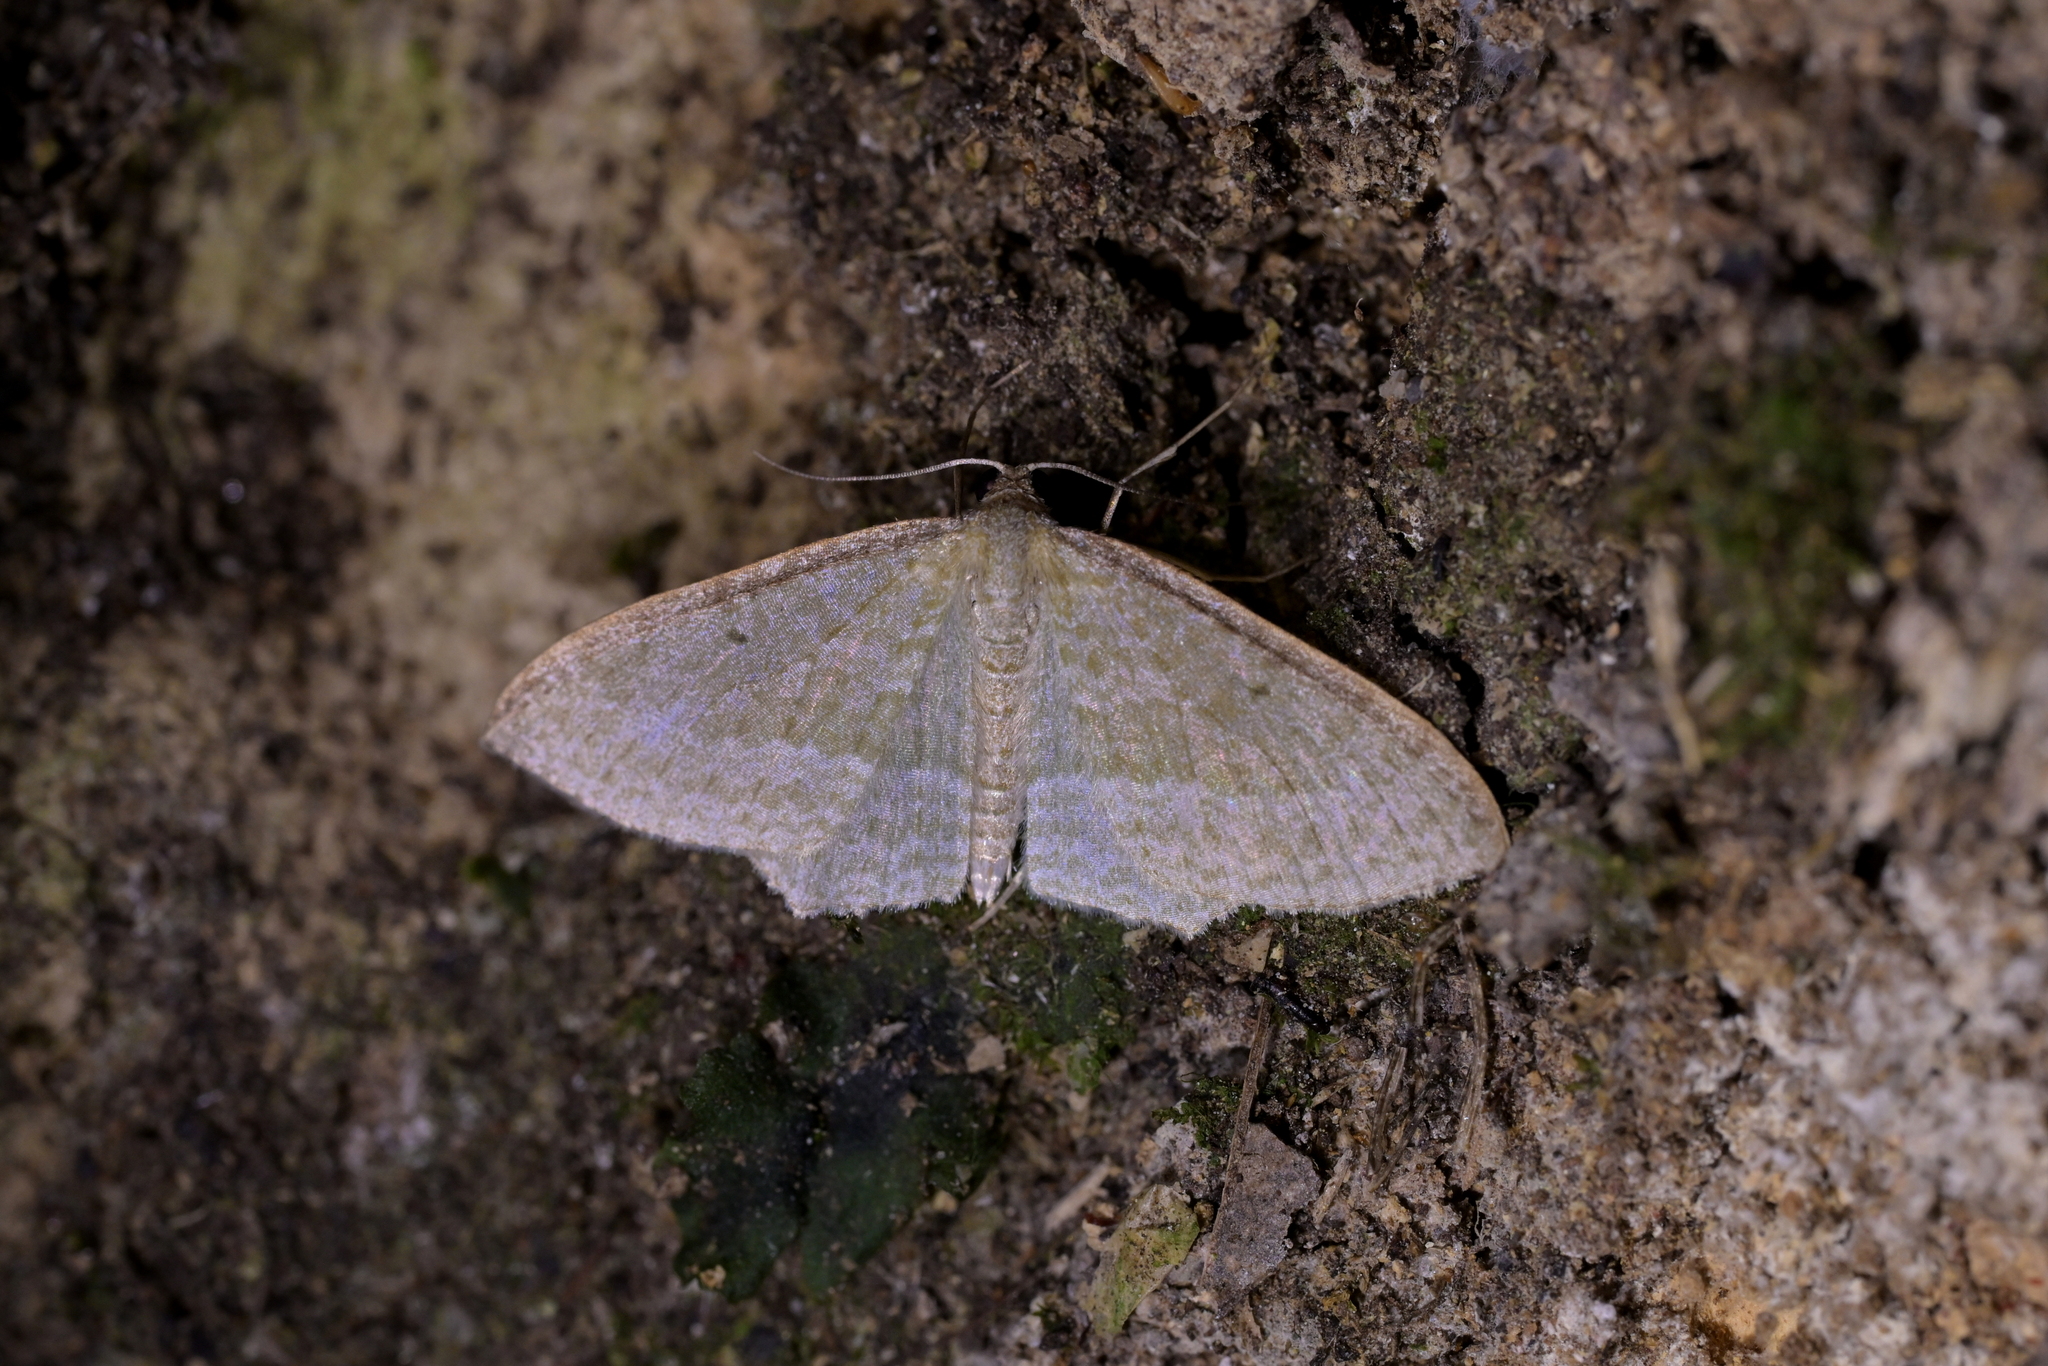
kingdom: Animalia
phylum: Arthropoda
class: Insecta
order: Lepidoptera
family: Geometridae
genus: Poecilasthena
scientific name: Poecilasthena pulchraria
